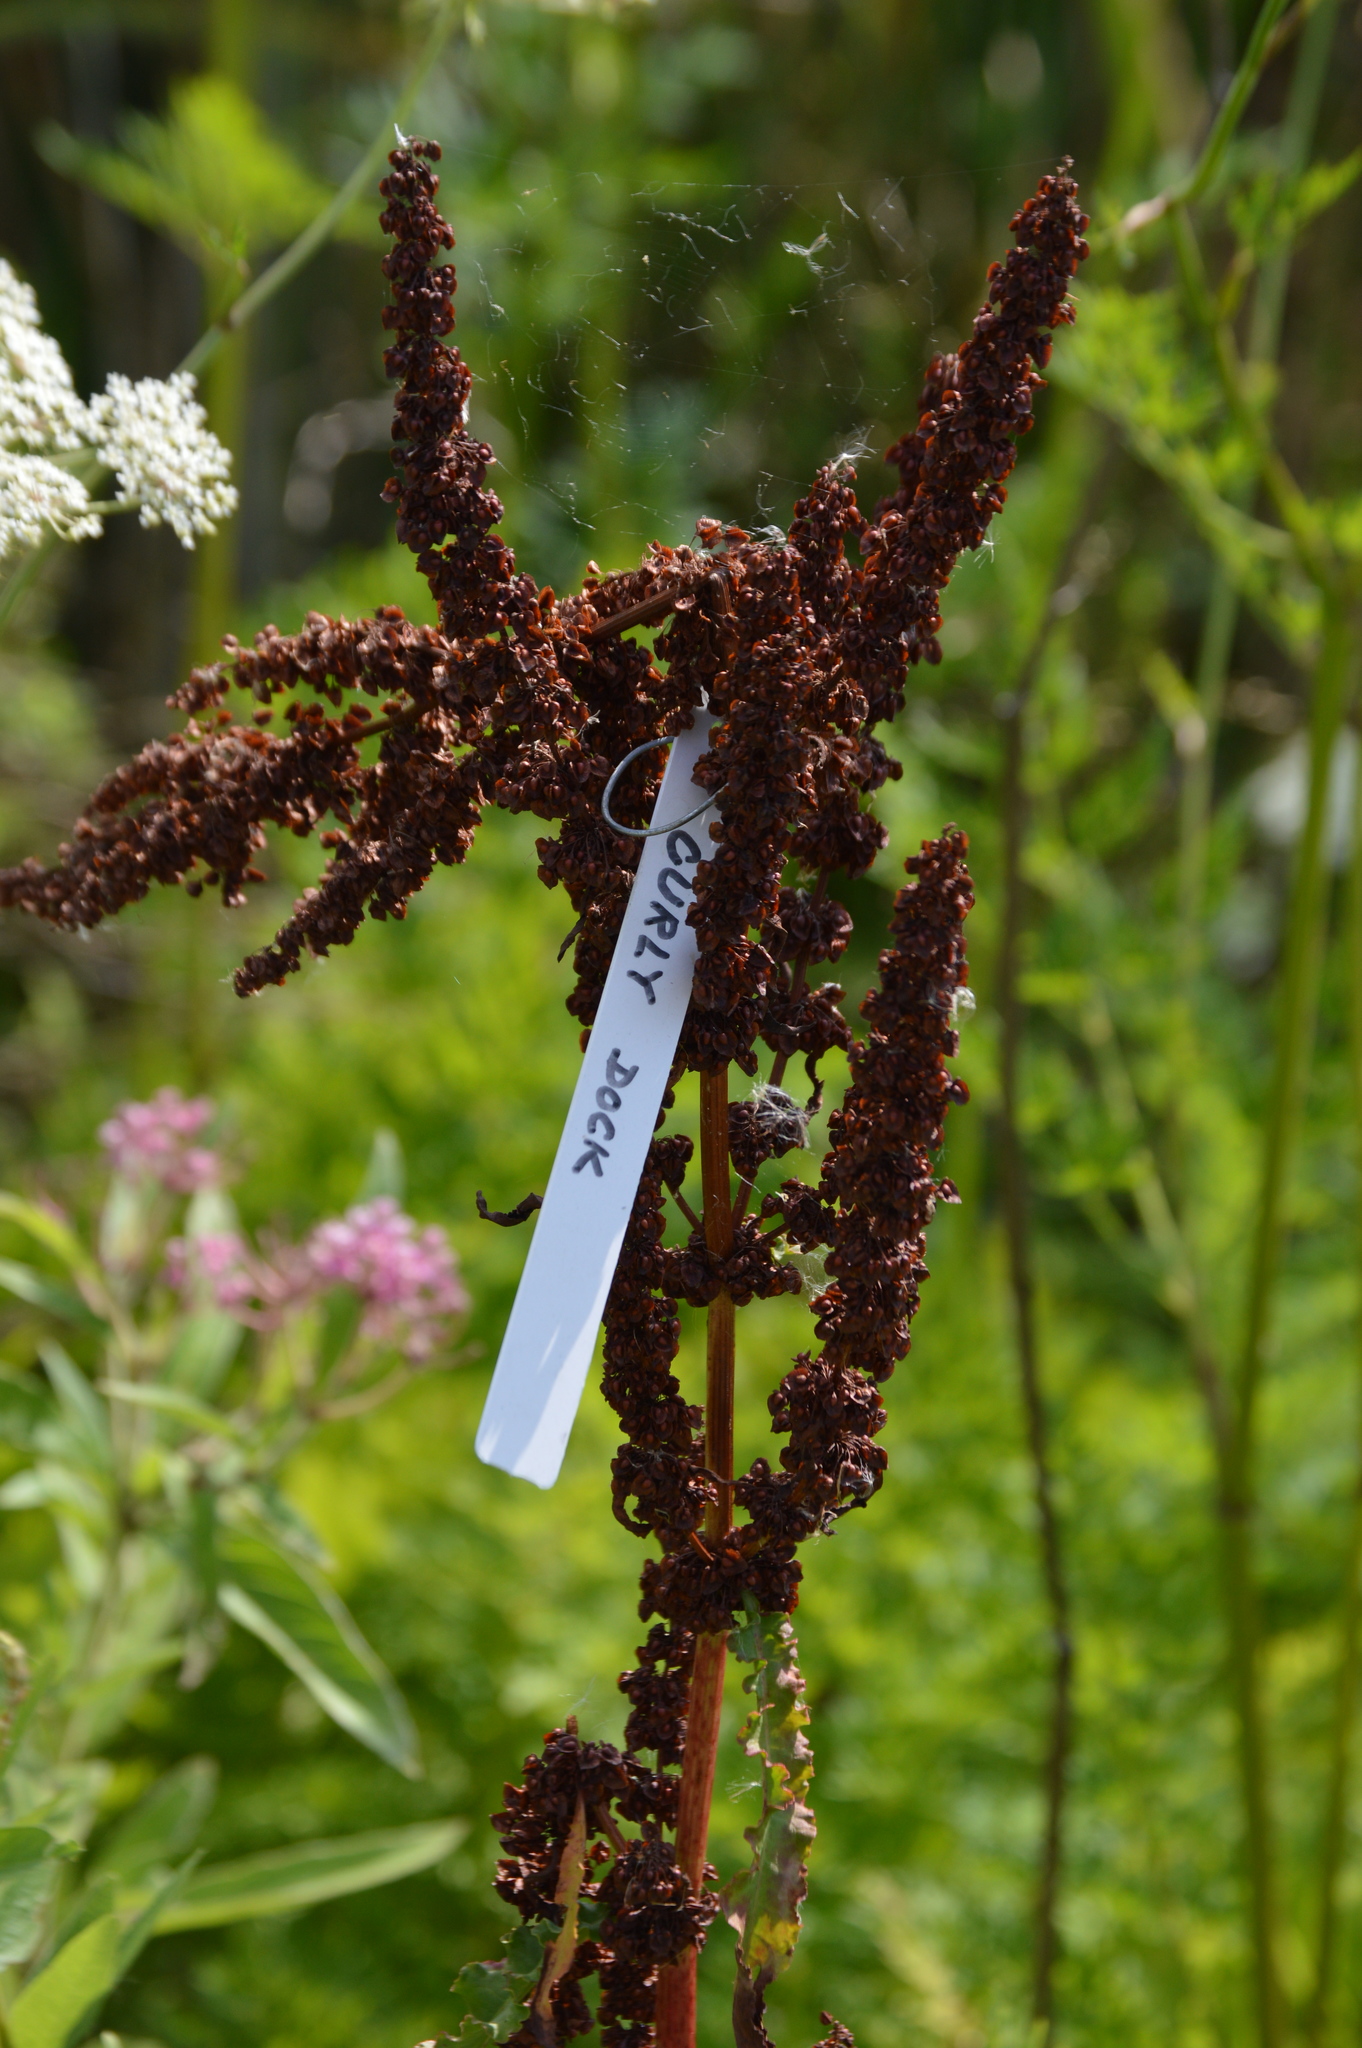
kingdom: Plantae
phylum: Tracheophyta
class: Magnoliopsida
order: Caryophyllales
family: Polygonaceae
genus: Rumex
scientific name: Rumex crispus
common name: Curled dock
